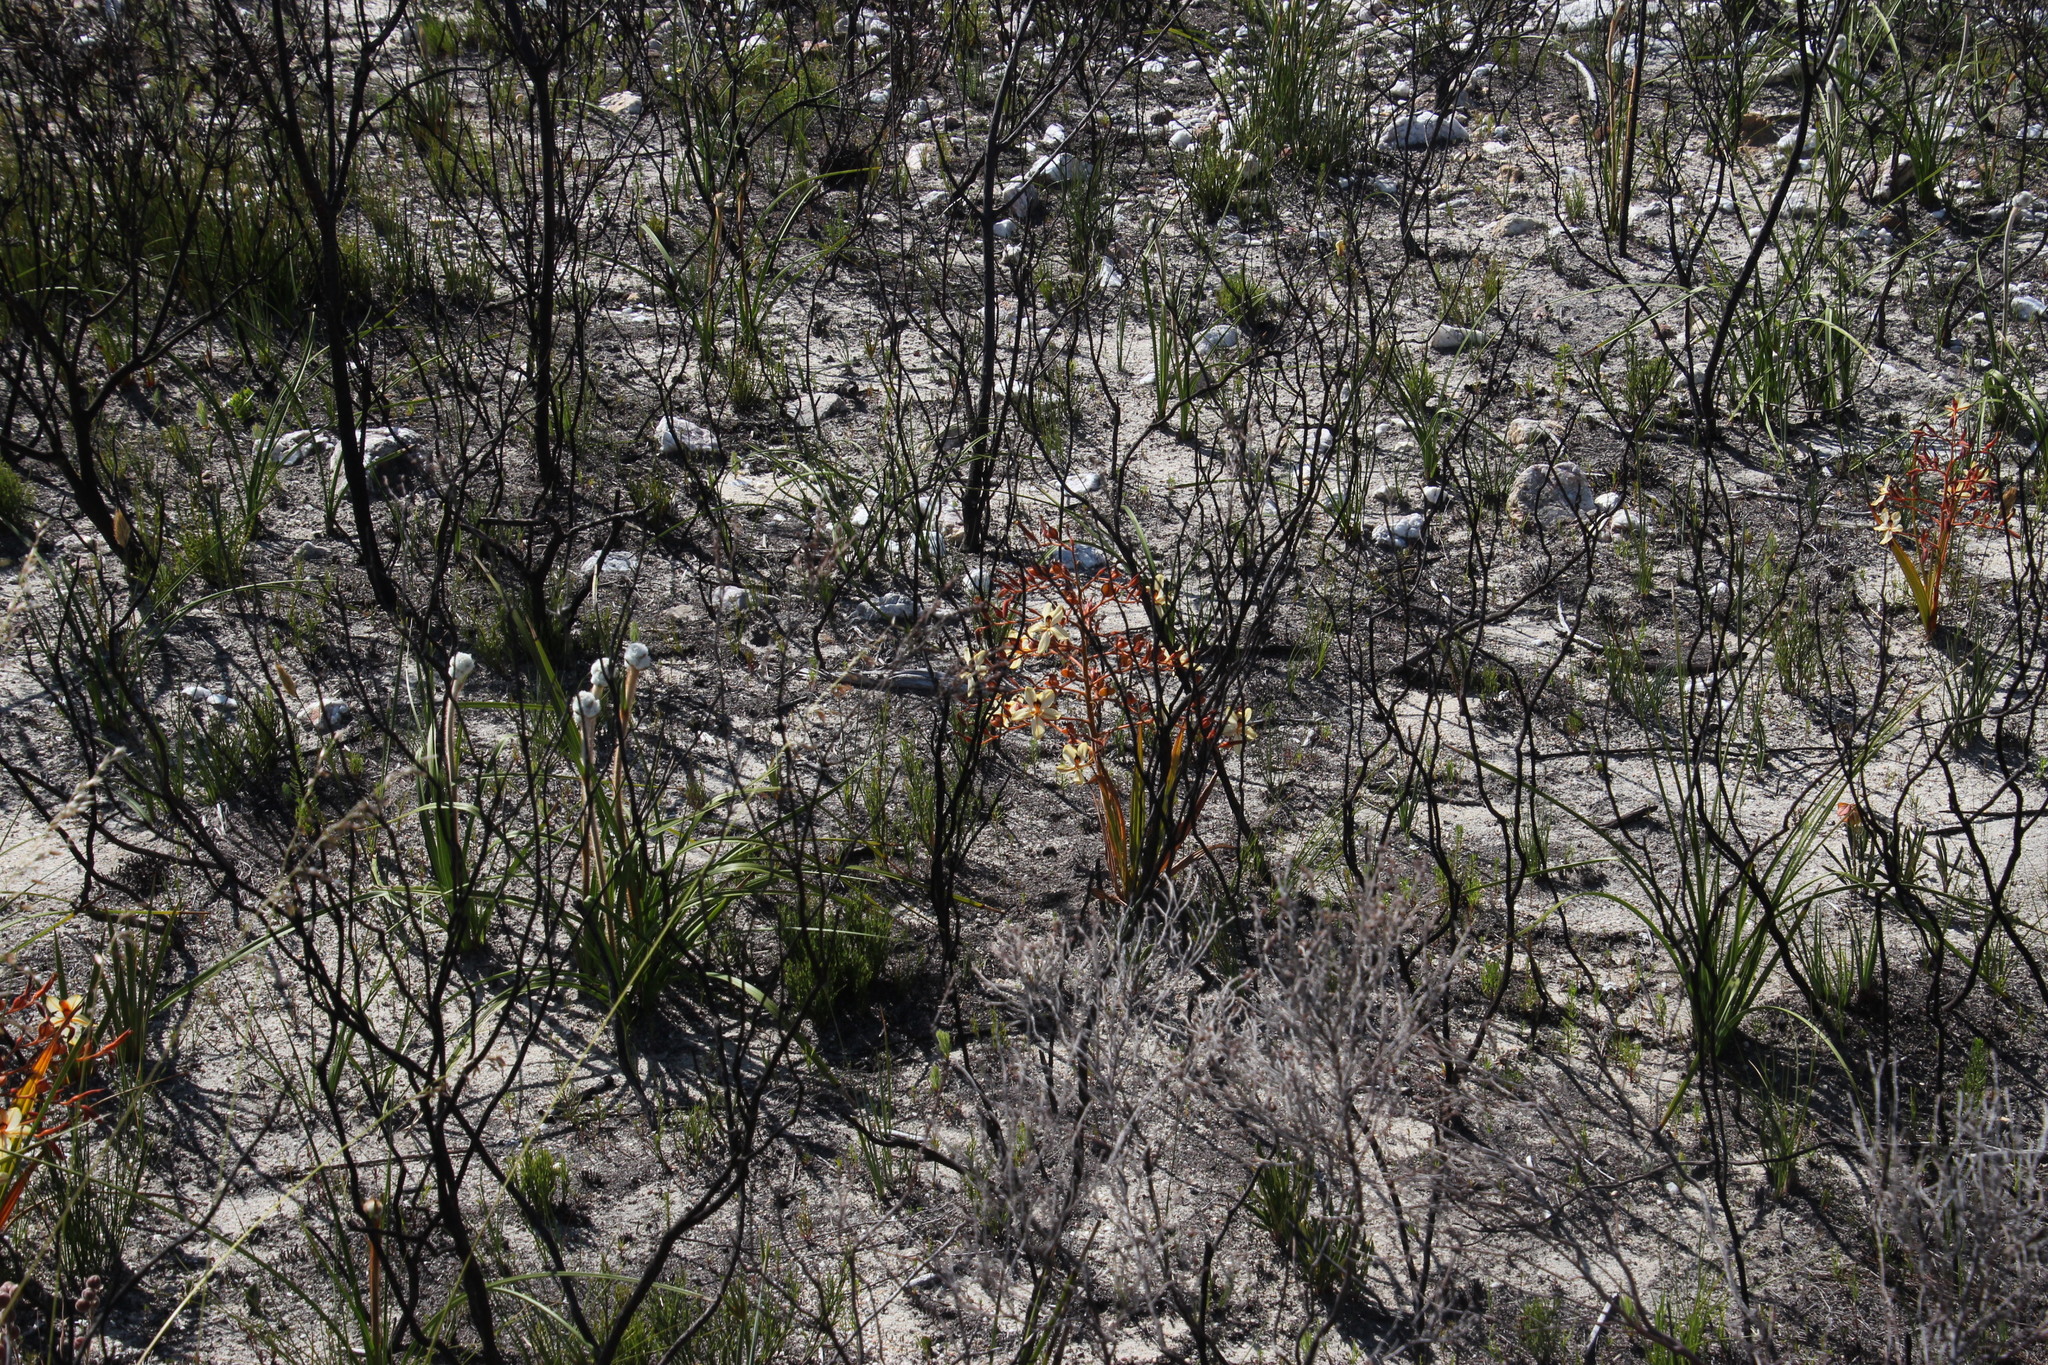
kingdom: Plantae
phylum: Tracheophyta
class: Liliopsida
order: Commelinales
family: Haemodoraceae
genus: Wachendorfia
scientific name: Wachendorfia paniculata
